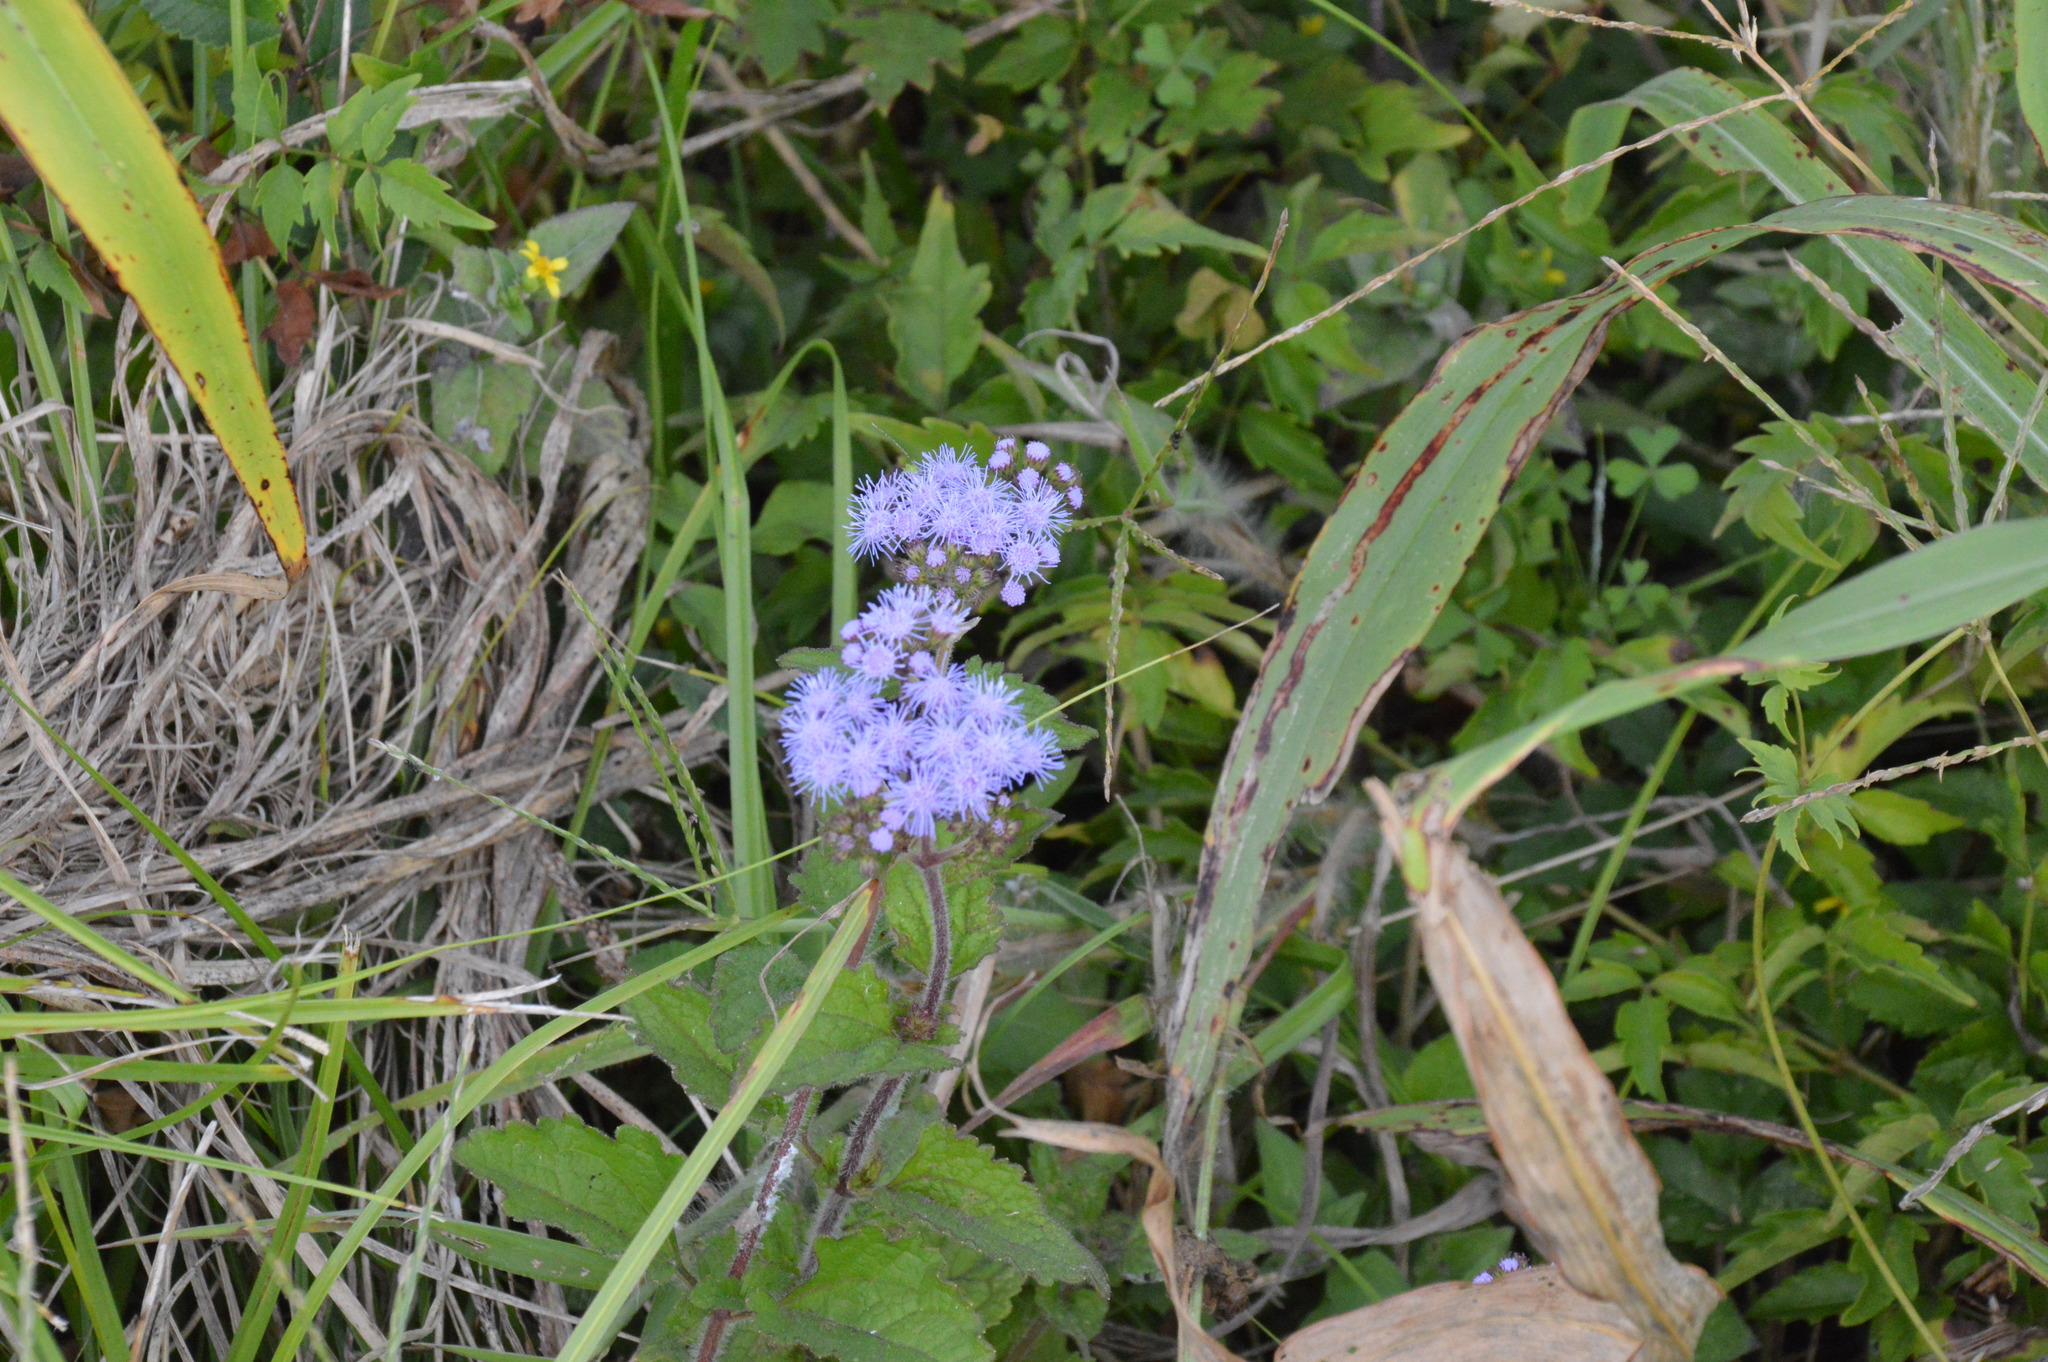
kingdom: Plantae
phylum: Tracheophyta
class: Magnoliopsida
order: Asterales
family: Asteraceae
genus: Conoclinium
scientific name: Conoclinium coelestinum
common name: Blue mistflower
